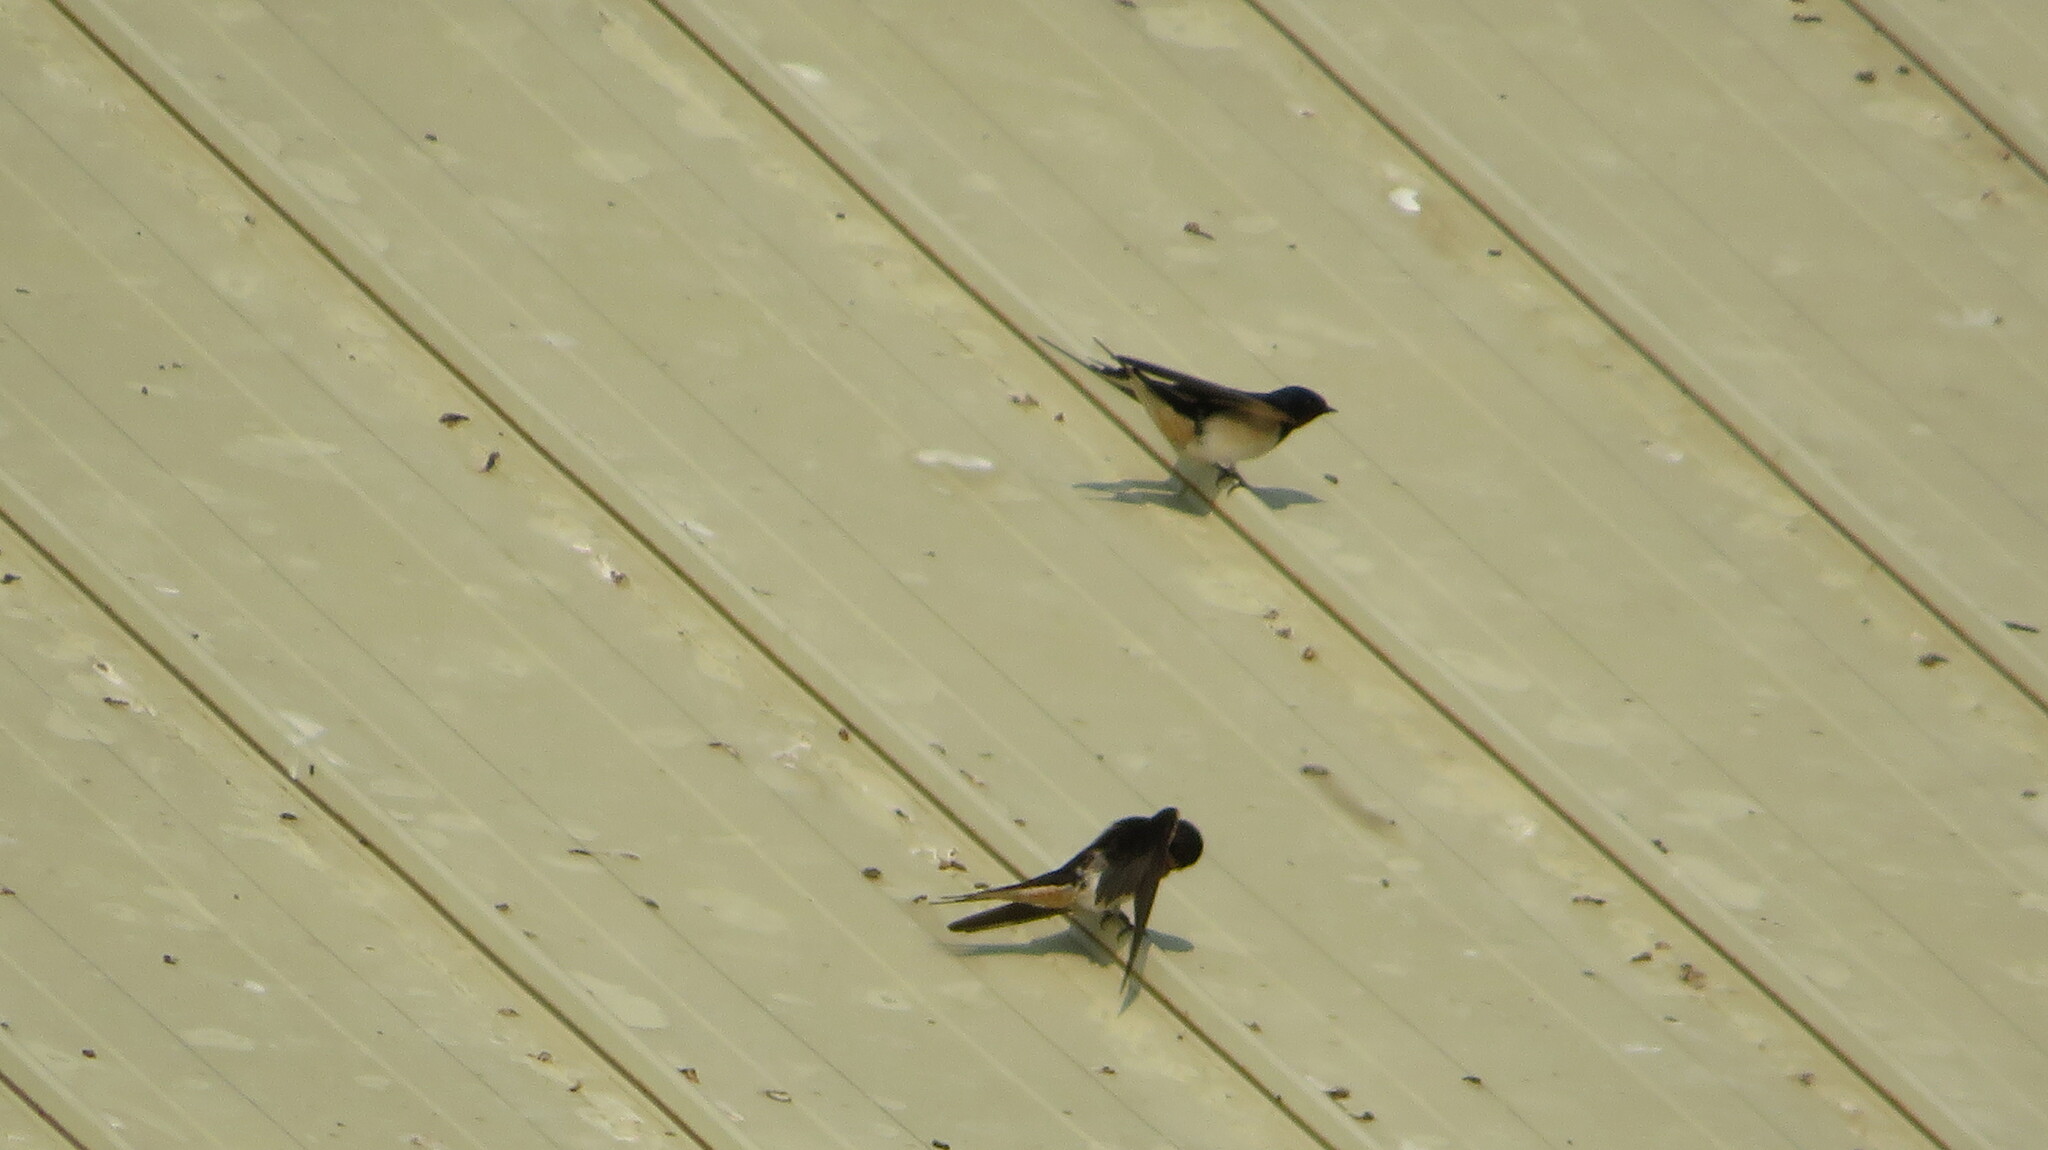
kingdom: Animalia
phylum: Chordata
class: Aves
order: Passeriformes
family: Hirundinidae
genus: Hirundo
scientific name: Hirundo rustica
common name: Barn swallow
